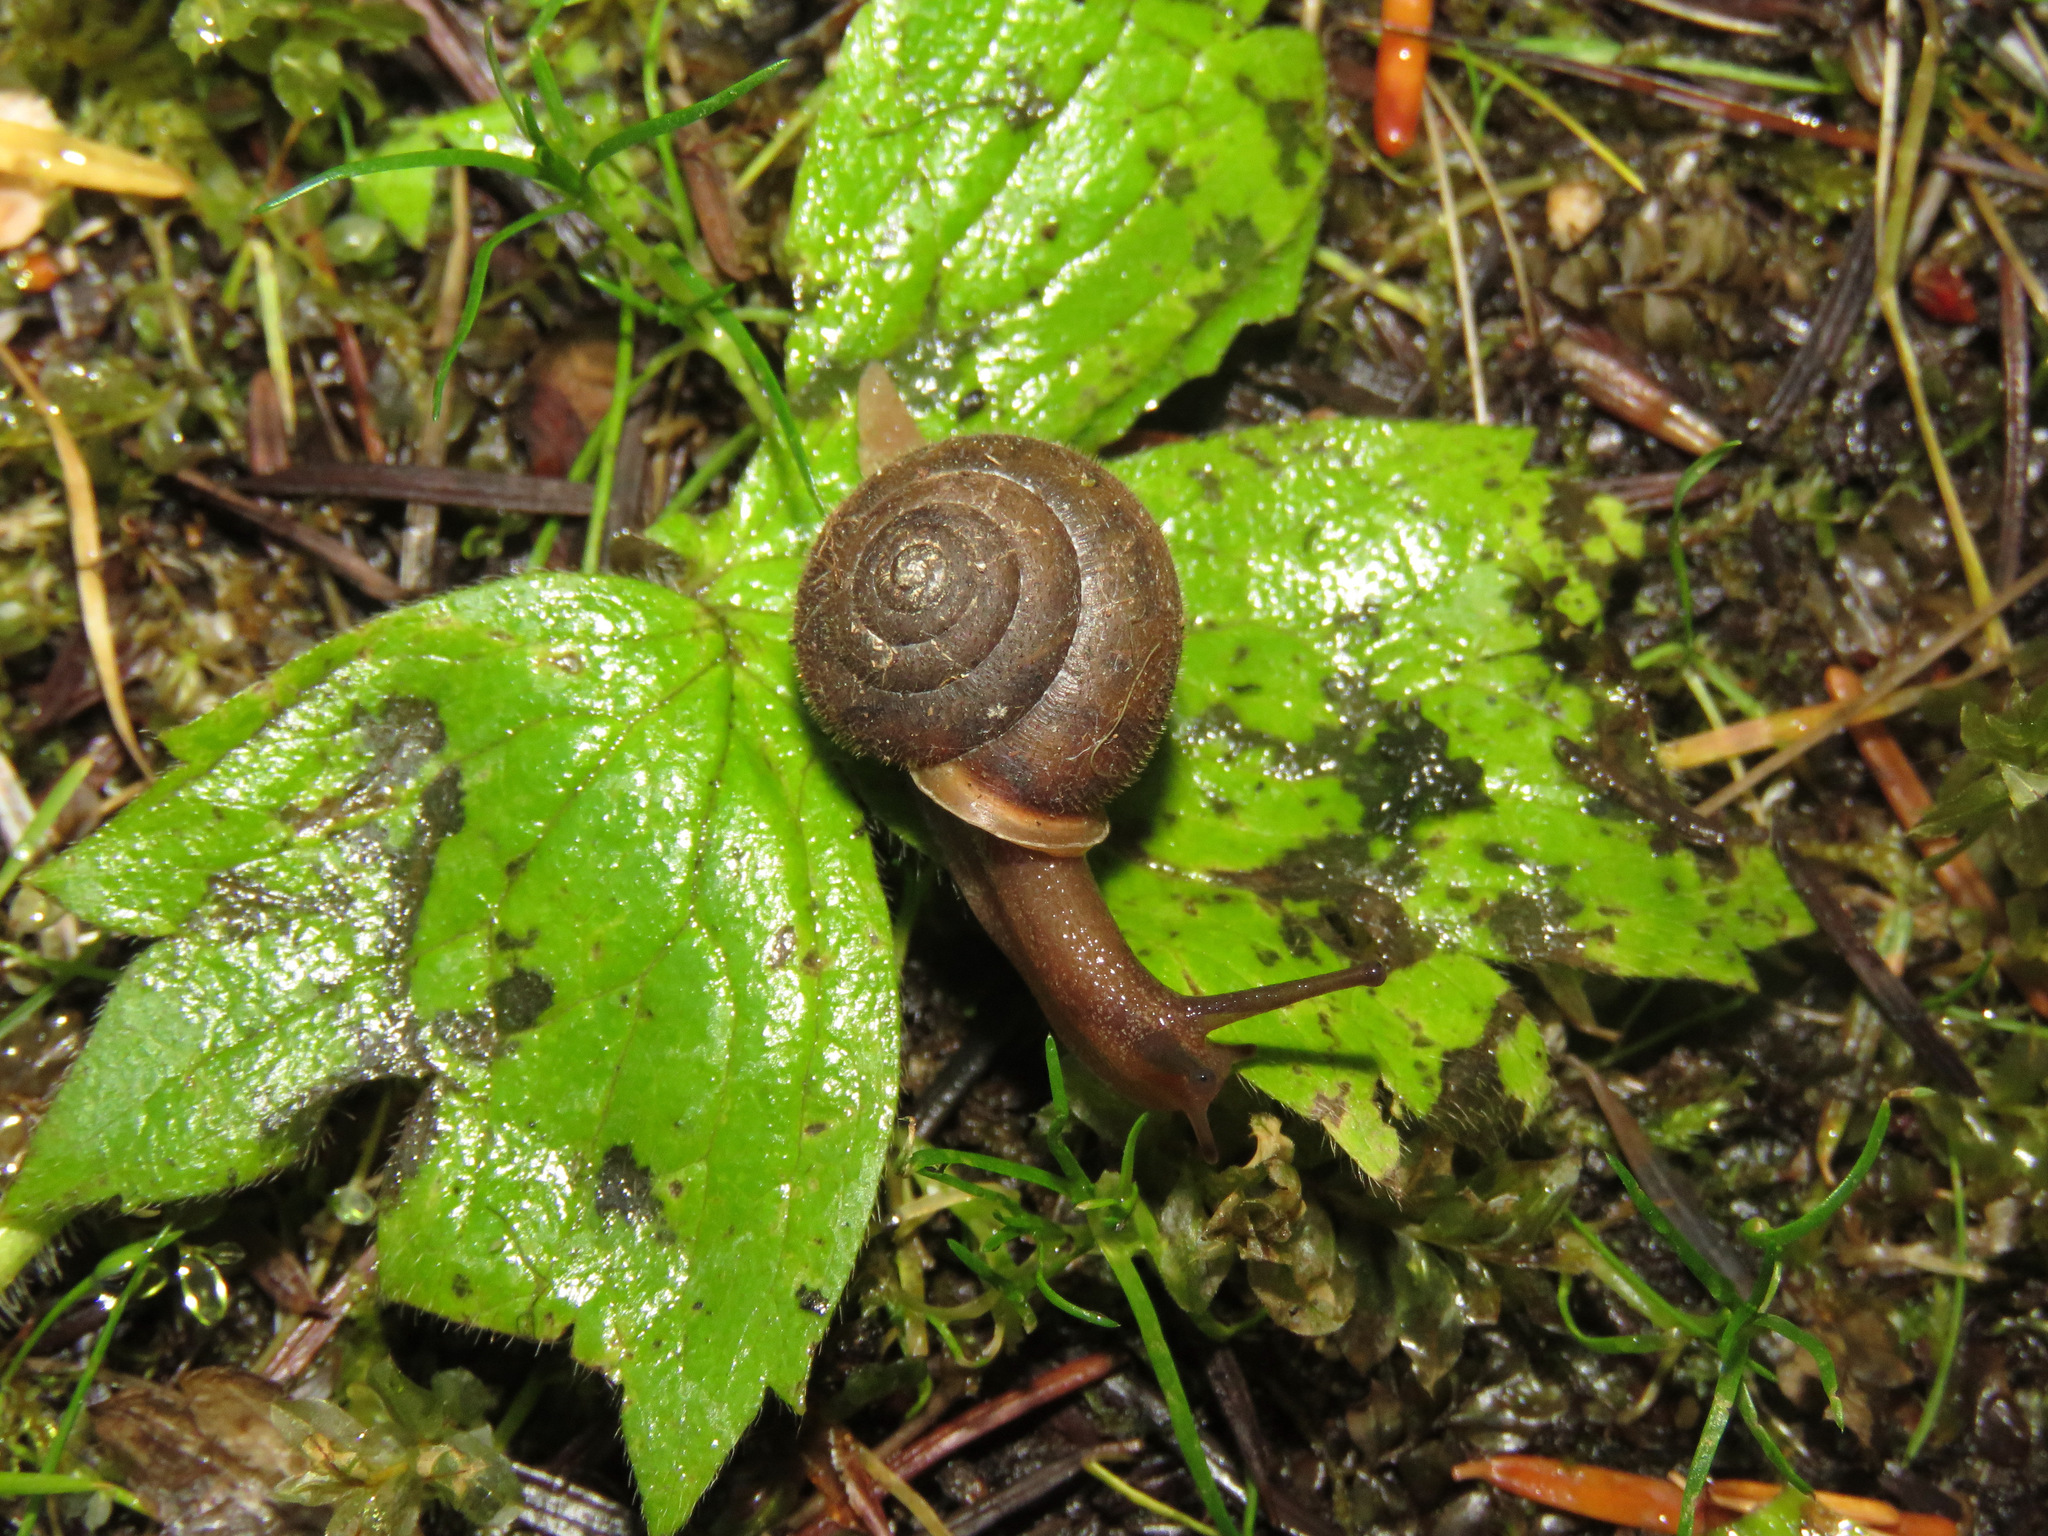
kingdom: Animalia
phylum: Mollusca
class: Gastropoda
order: Stylommatophora
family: Polygyridae
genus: Vespericola
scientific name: Vespericola columbianus
